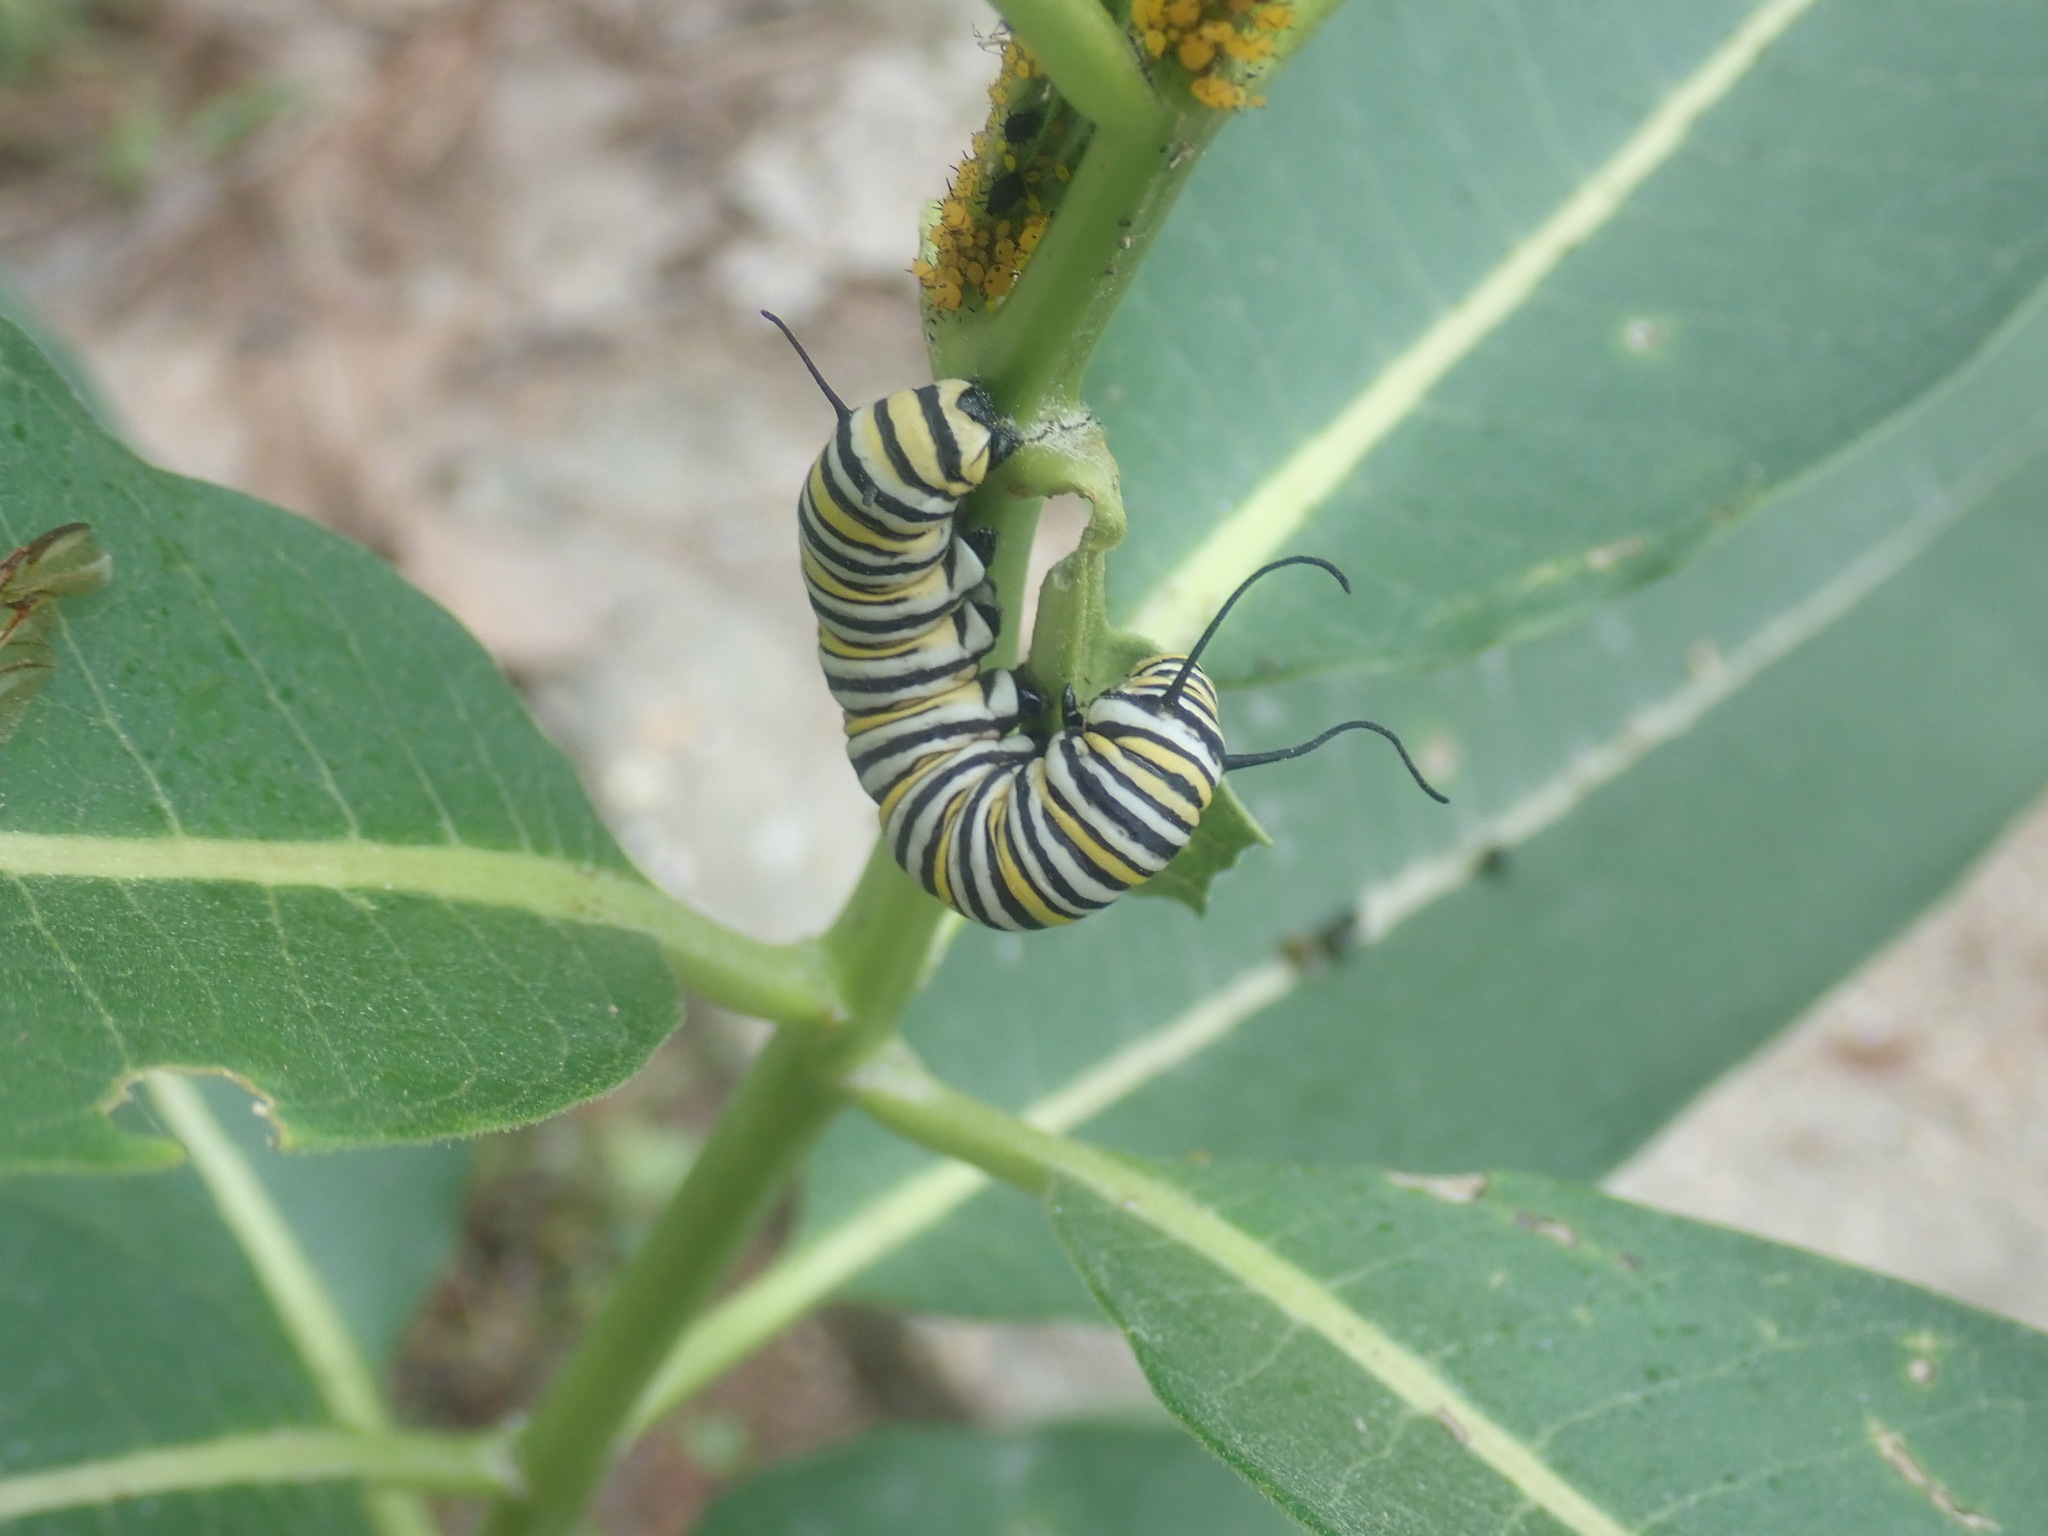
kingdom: Animalia
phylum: Arthropoda
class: Insecta
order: Lepidoptera
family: Nymphalidae
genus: Danaus
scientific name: Danaus plexippus
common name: Monarch
